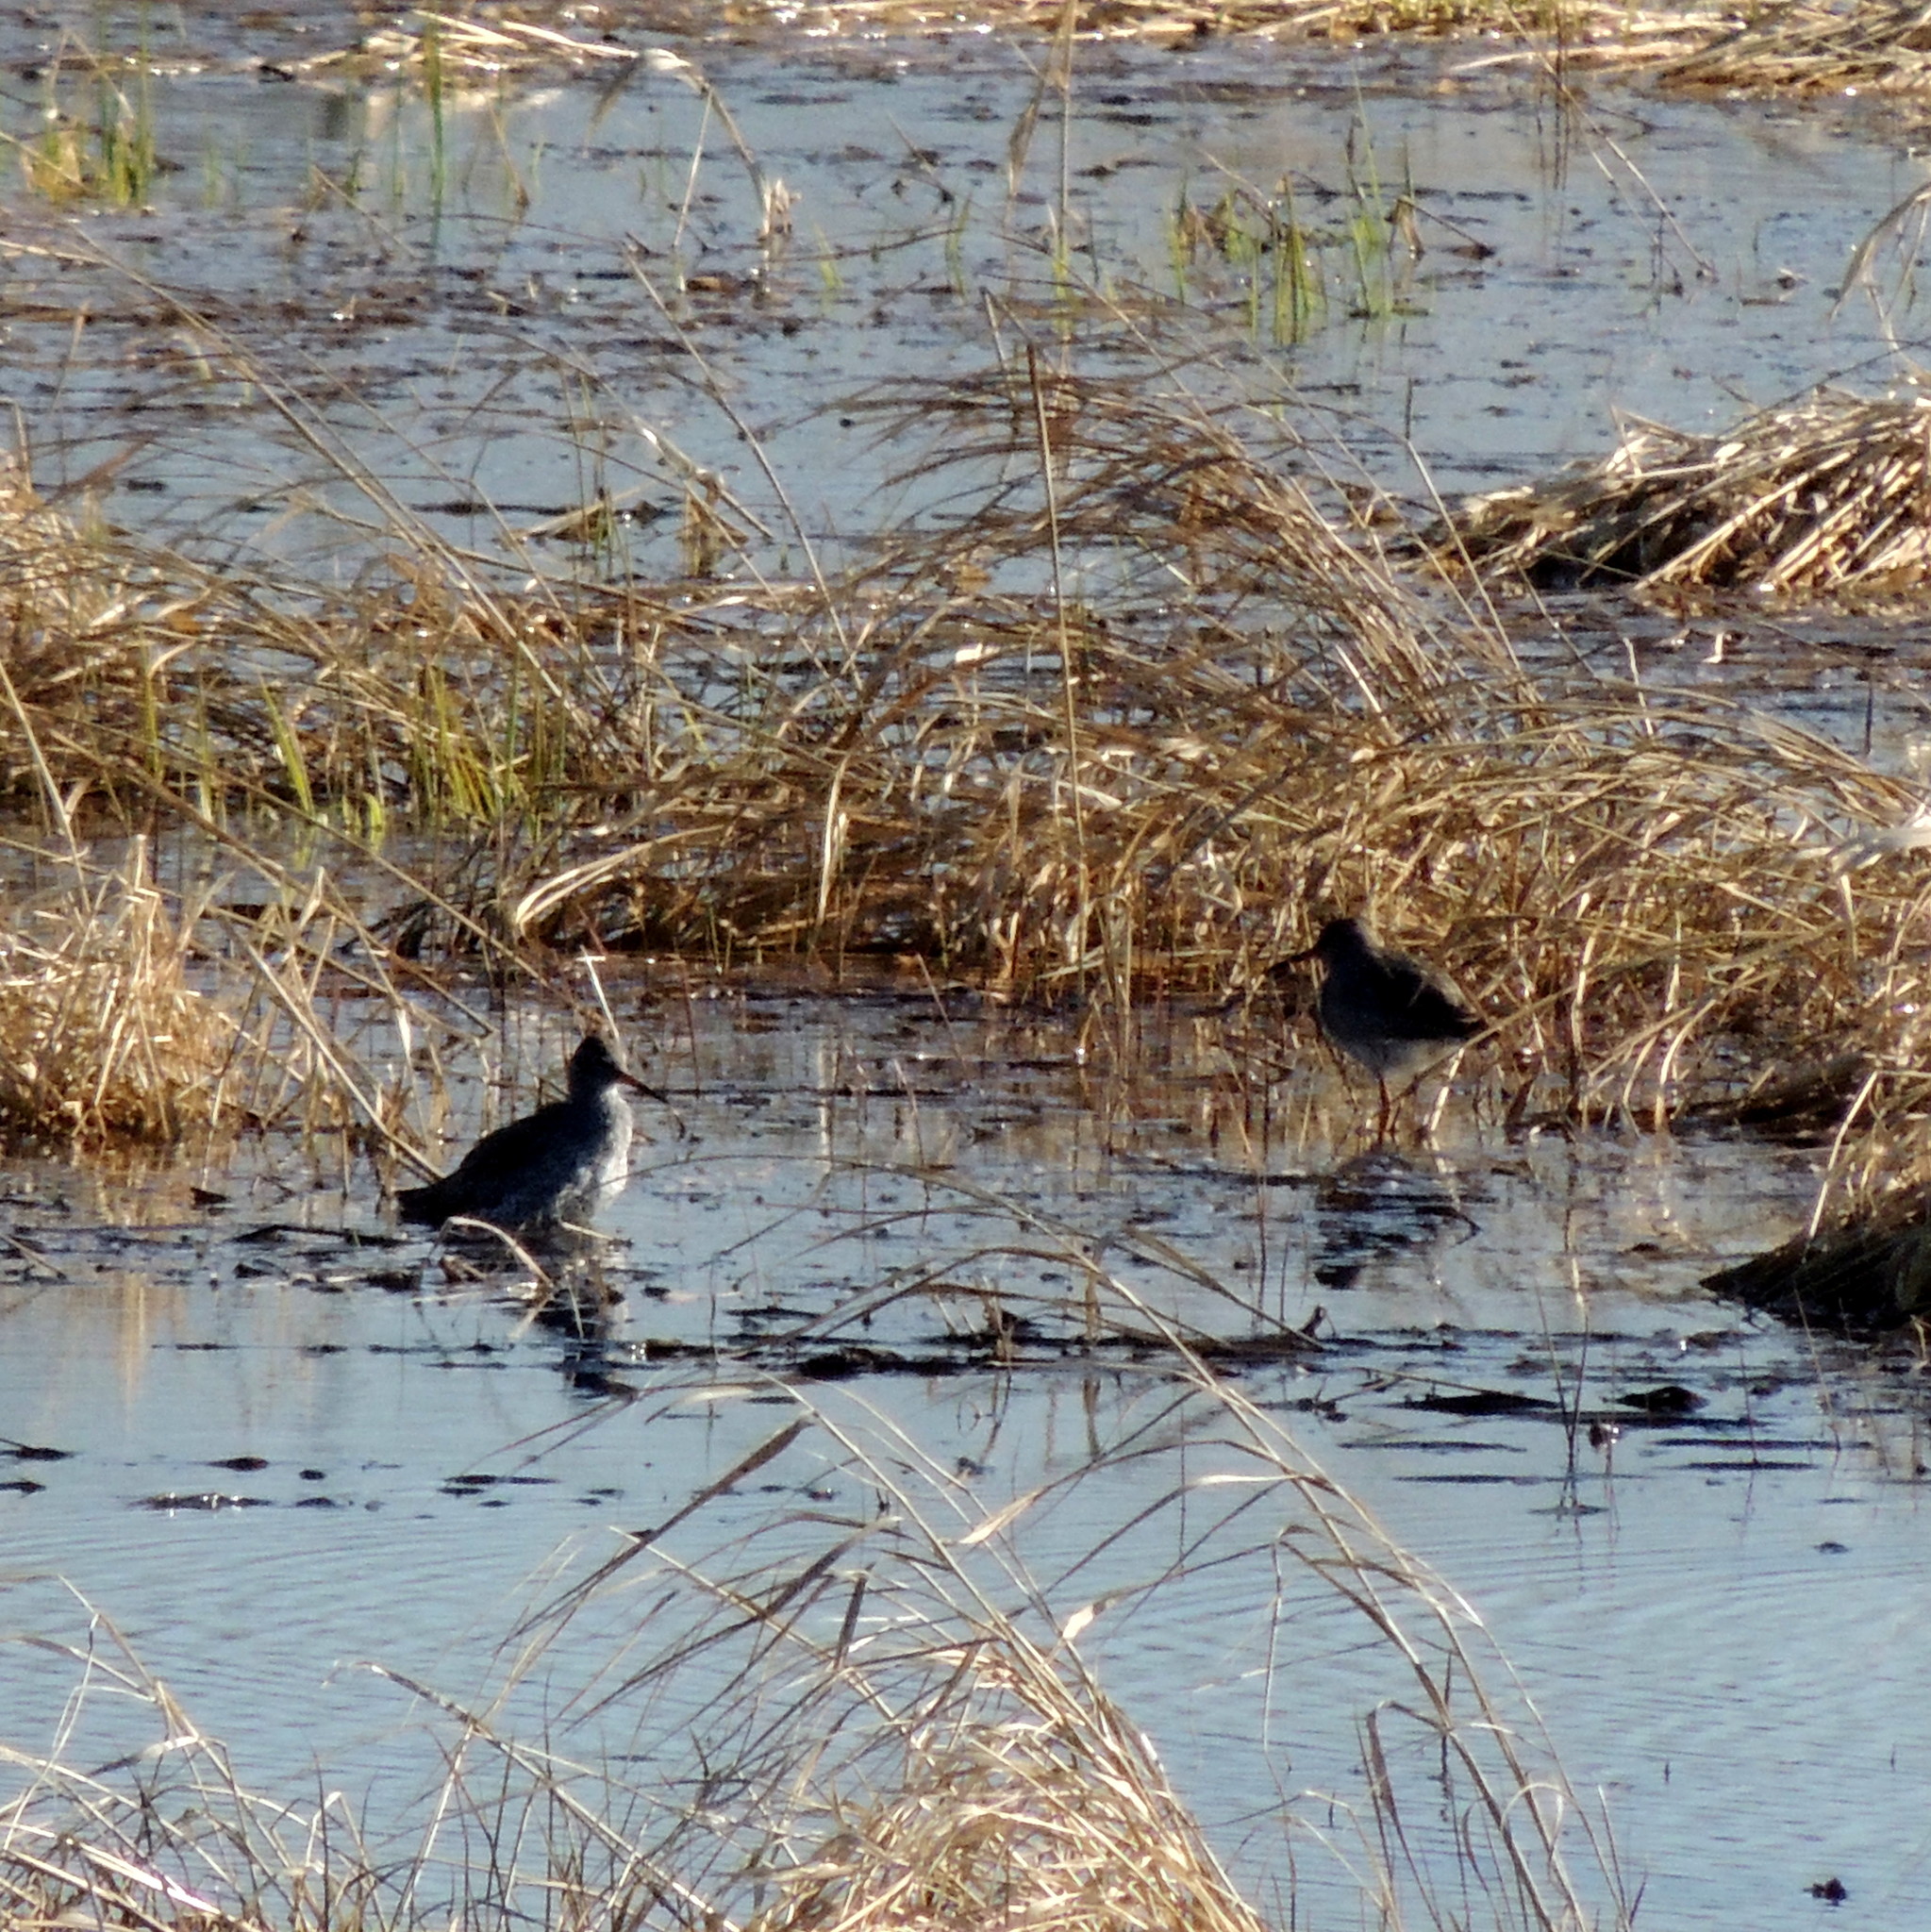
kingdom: Animalia
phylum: Chordata
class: Aves
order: Charadriiformes
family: Scolopacidae
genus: Tringa
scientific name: Tringa totanus
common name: Common redshank
